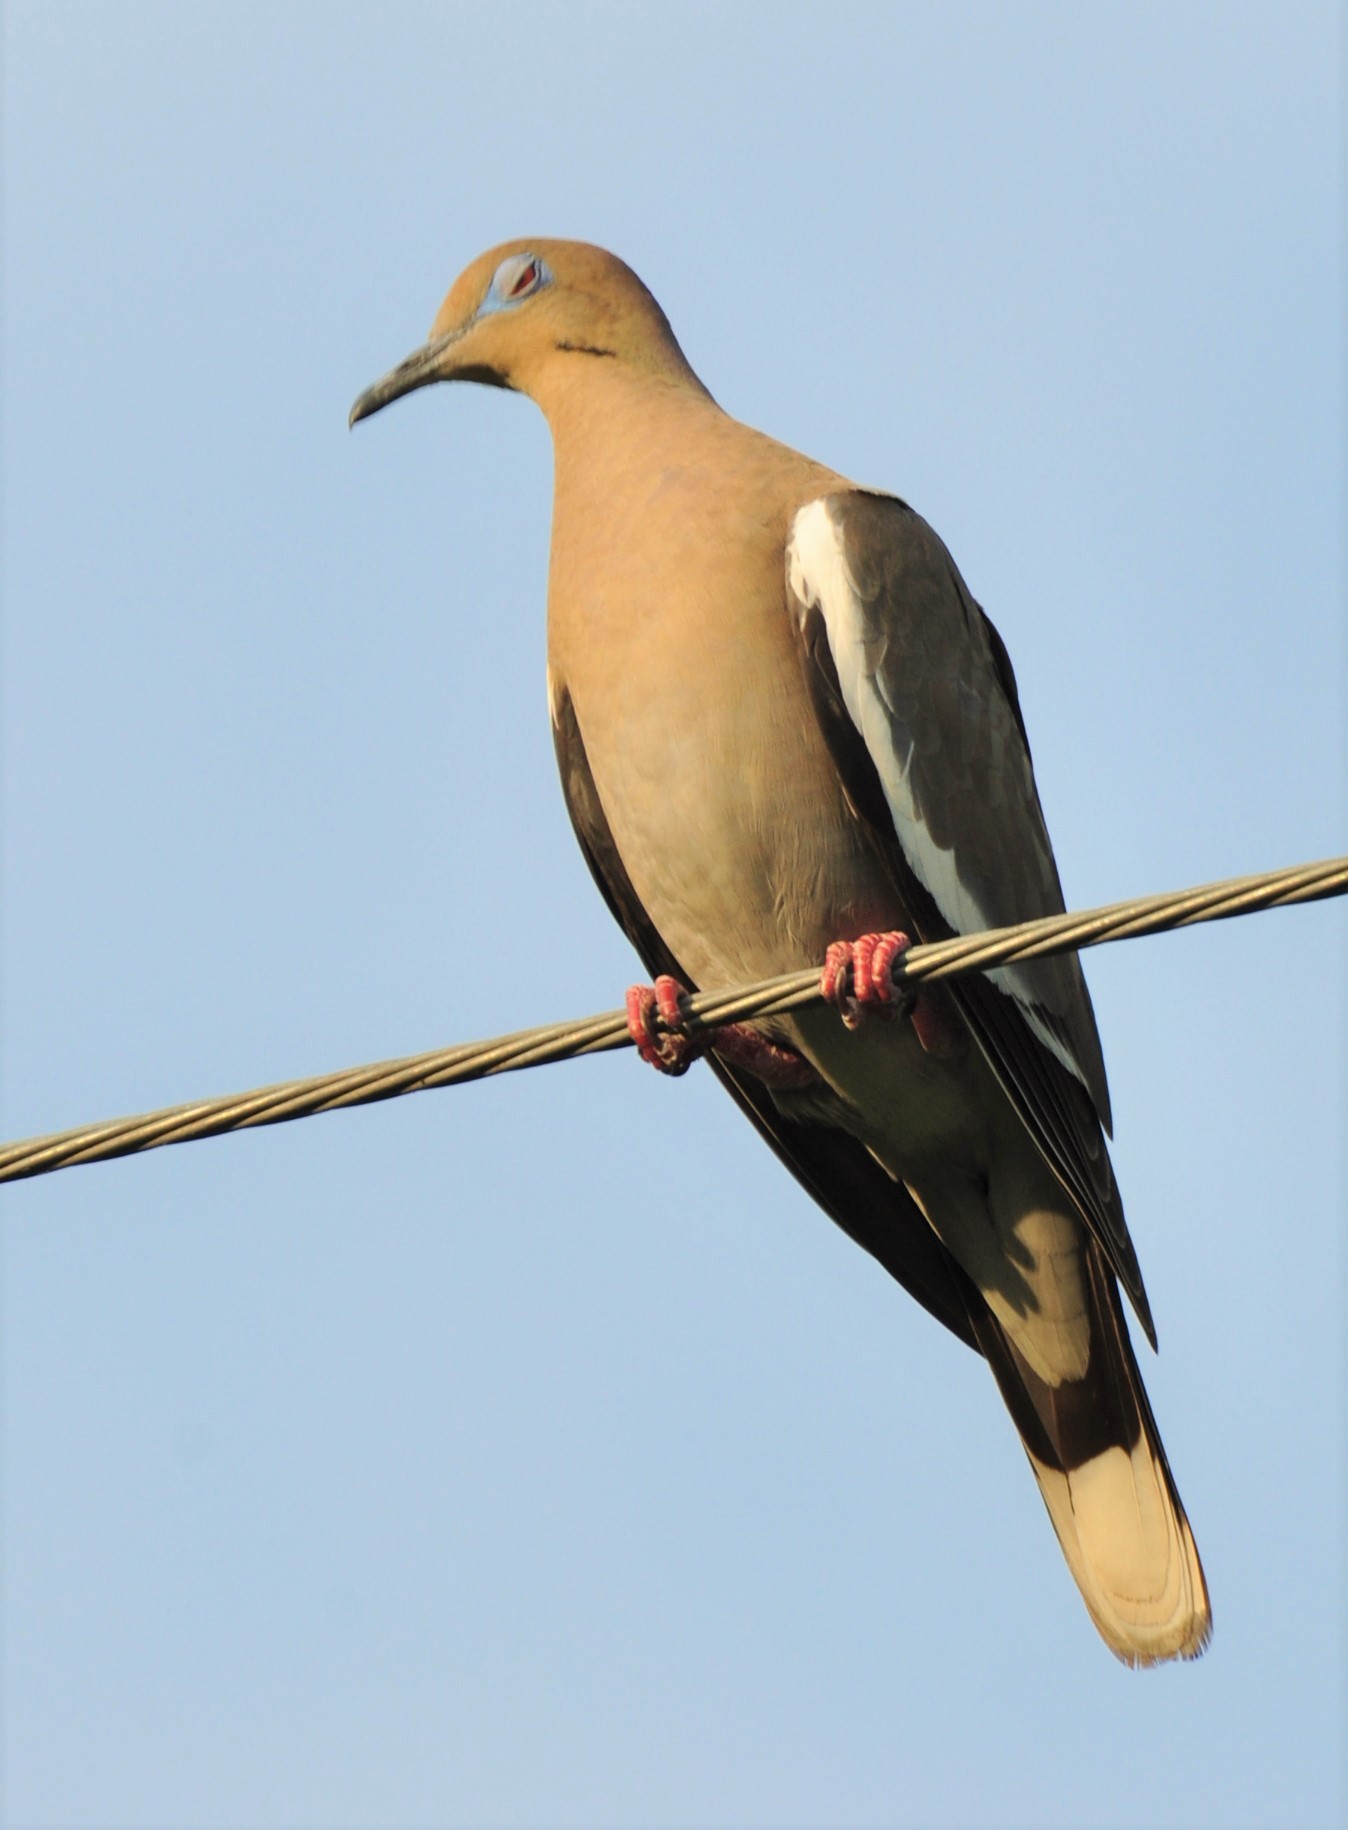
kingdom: Animalia
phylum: Chordata
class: Aves
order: Columbiformes
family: Columbidae
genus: Zenaida
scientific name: Zenaida asiatica
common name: White-winged dove
